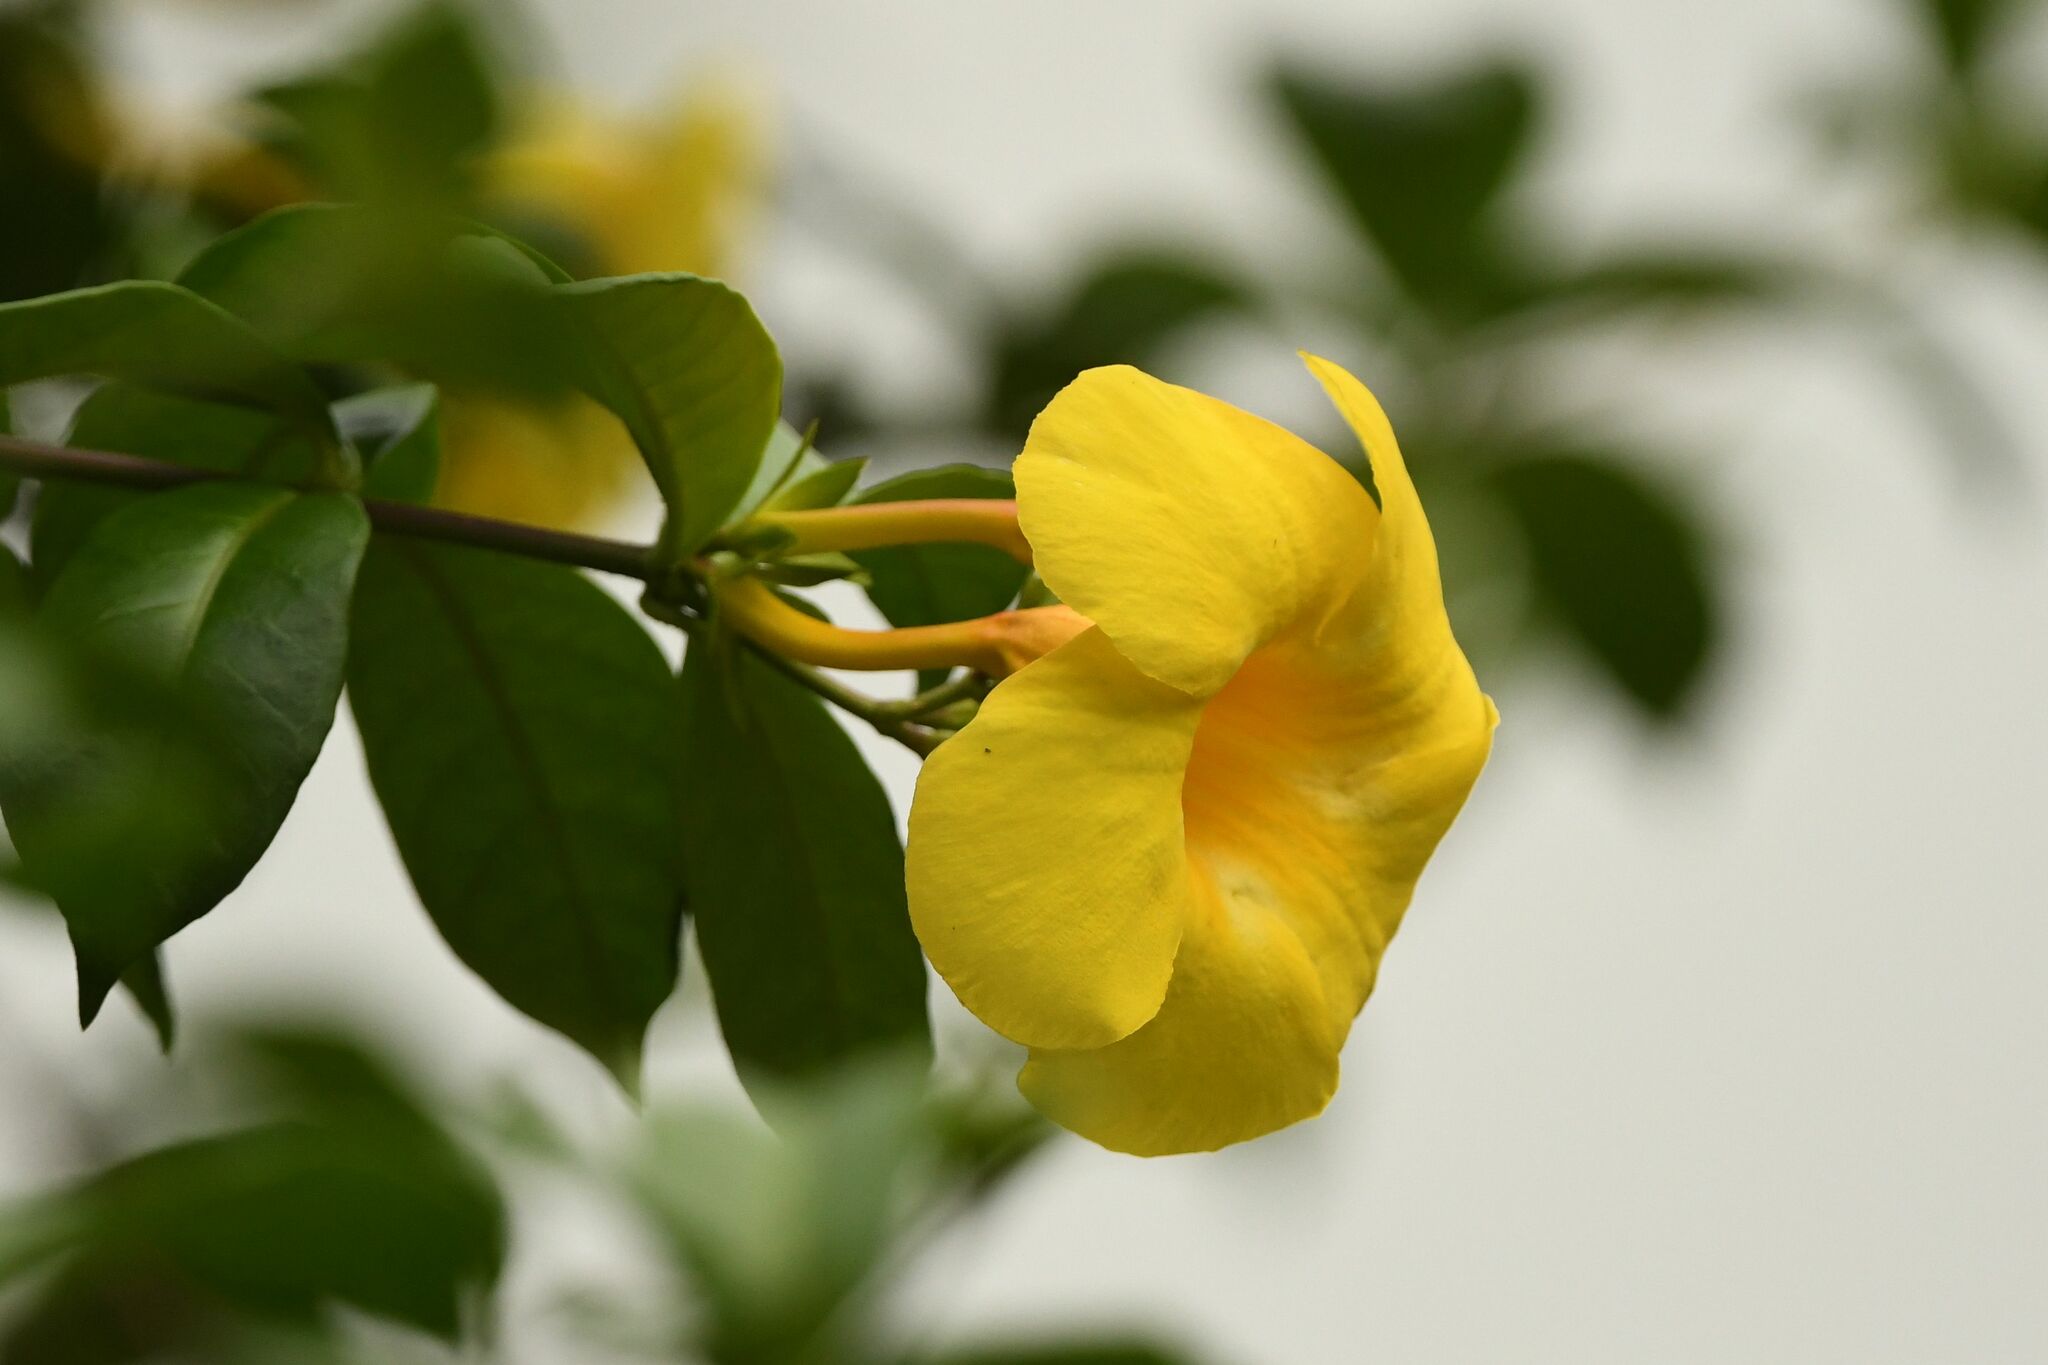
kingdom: Plantae
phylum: Tracheophyta
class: Magnoliopsida
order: Gentianales
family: Apocynaceae
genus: Allamanda
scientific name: Allamanda cathartica
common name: Golden trumpet
